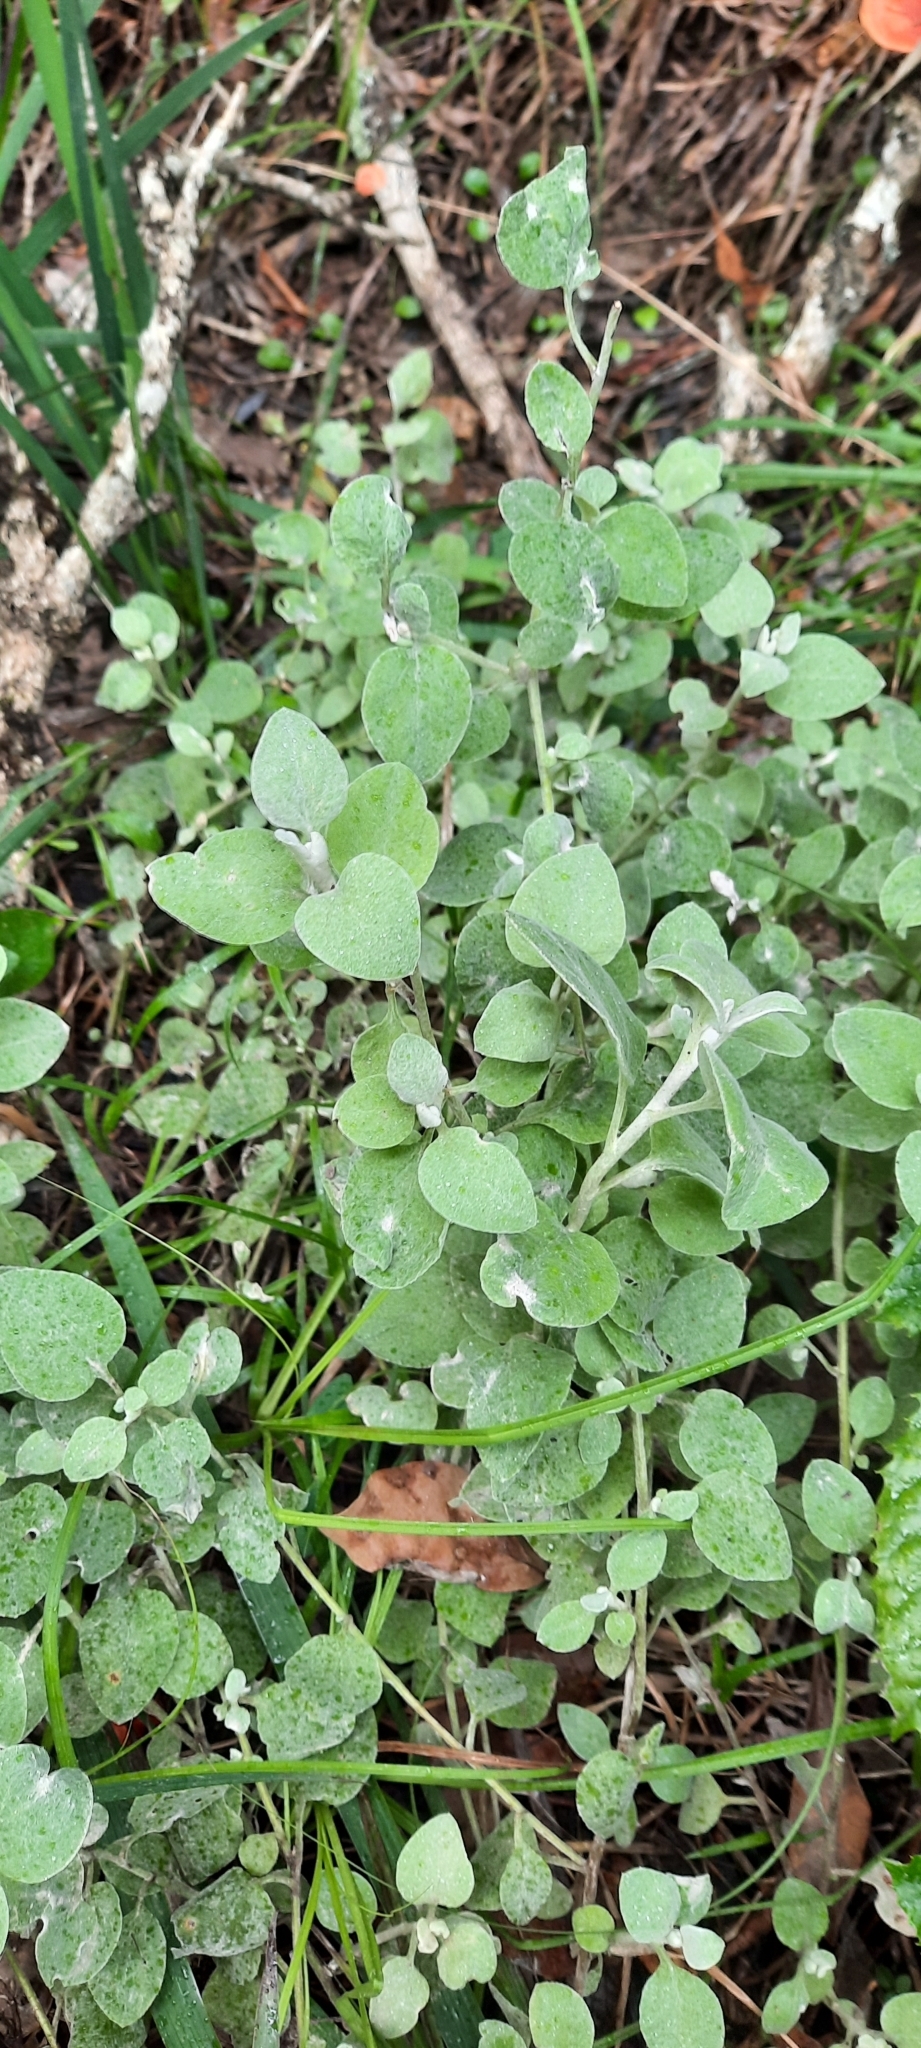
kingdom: Plantae
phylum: Tracheophyta
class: Magnoliopsida
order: Asterales
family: Asteraceae
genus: Helichrysum
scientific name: Helichrysum petiolare
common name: Licorice-plant
